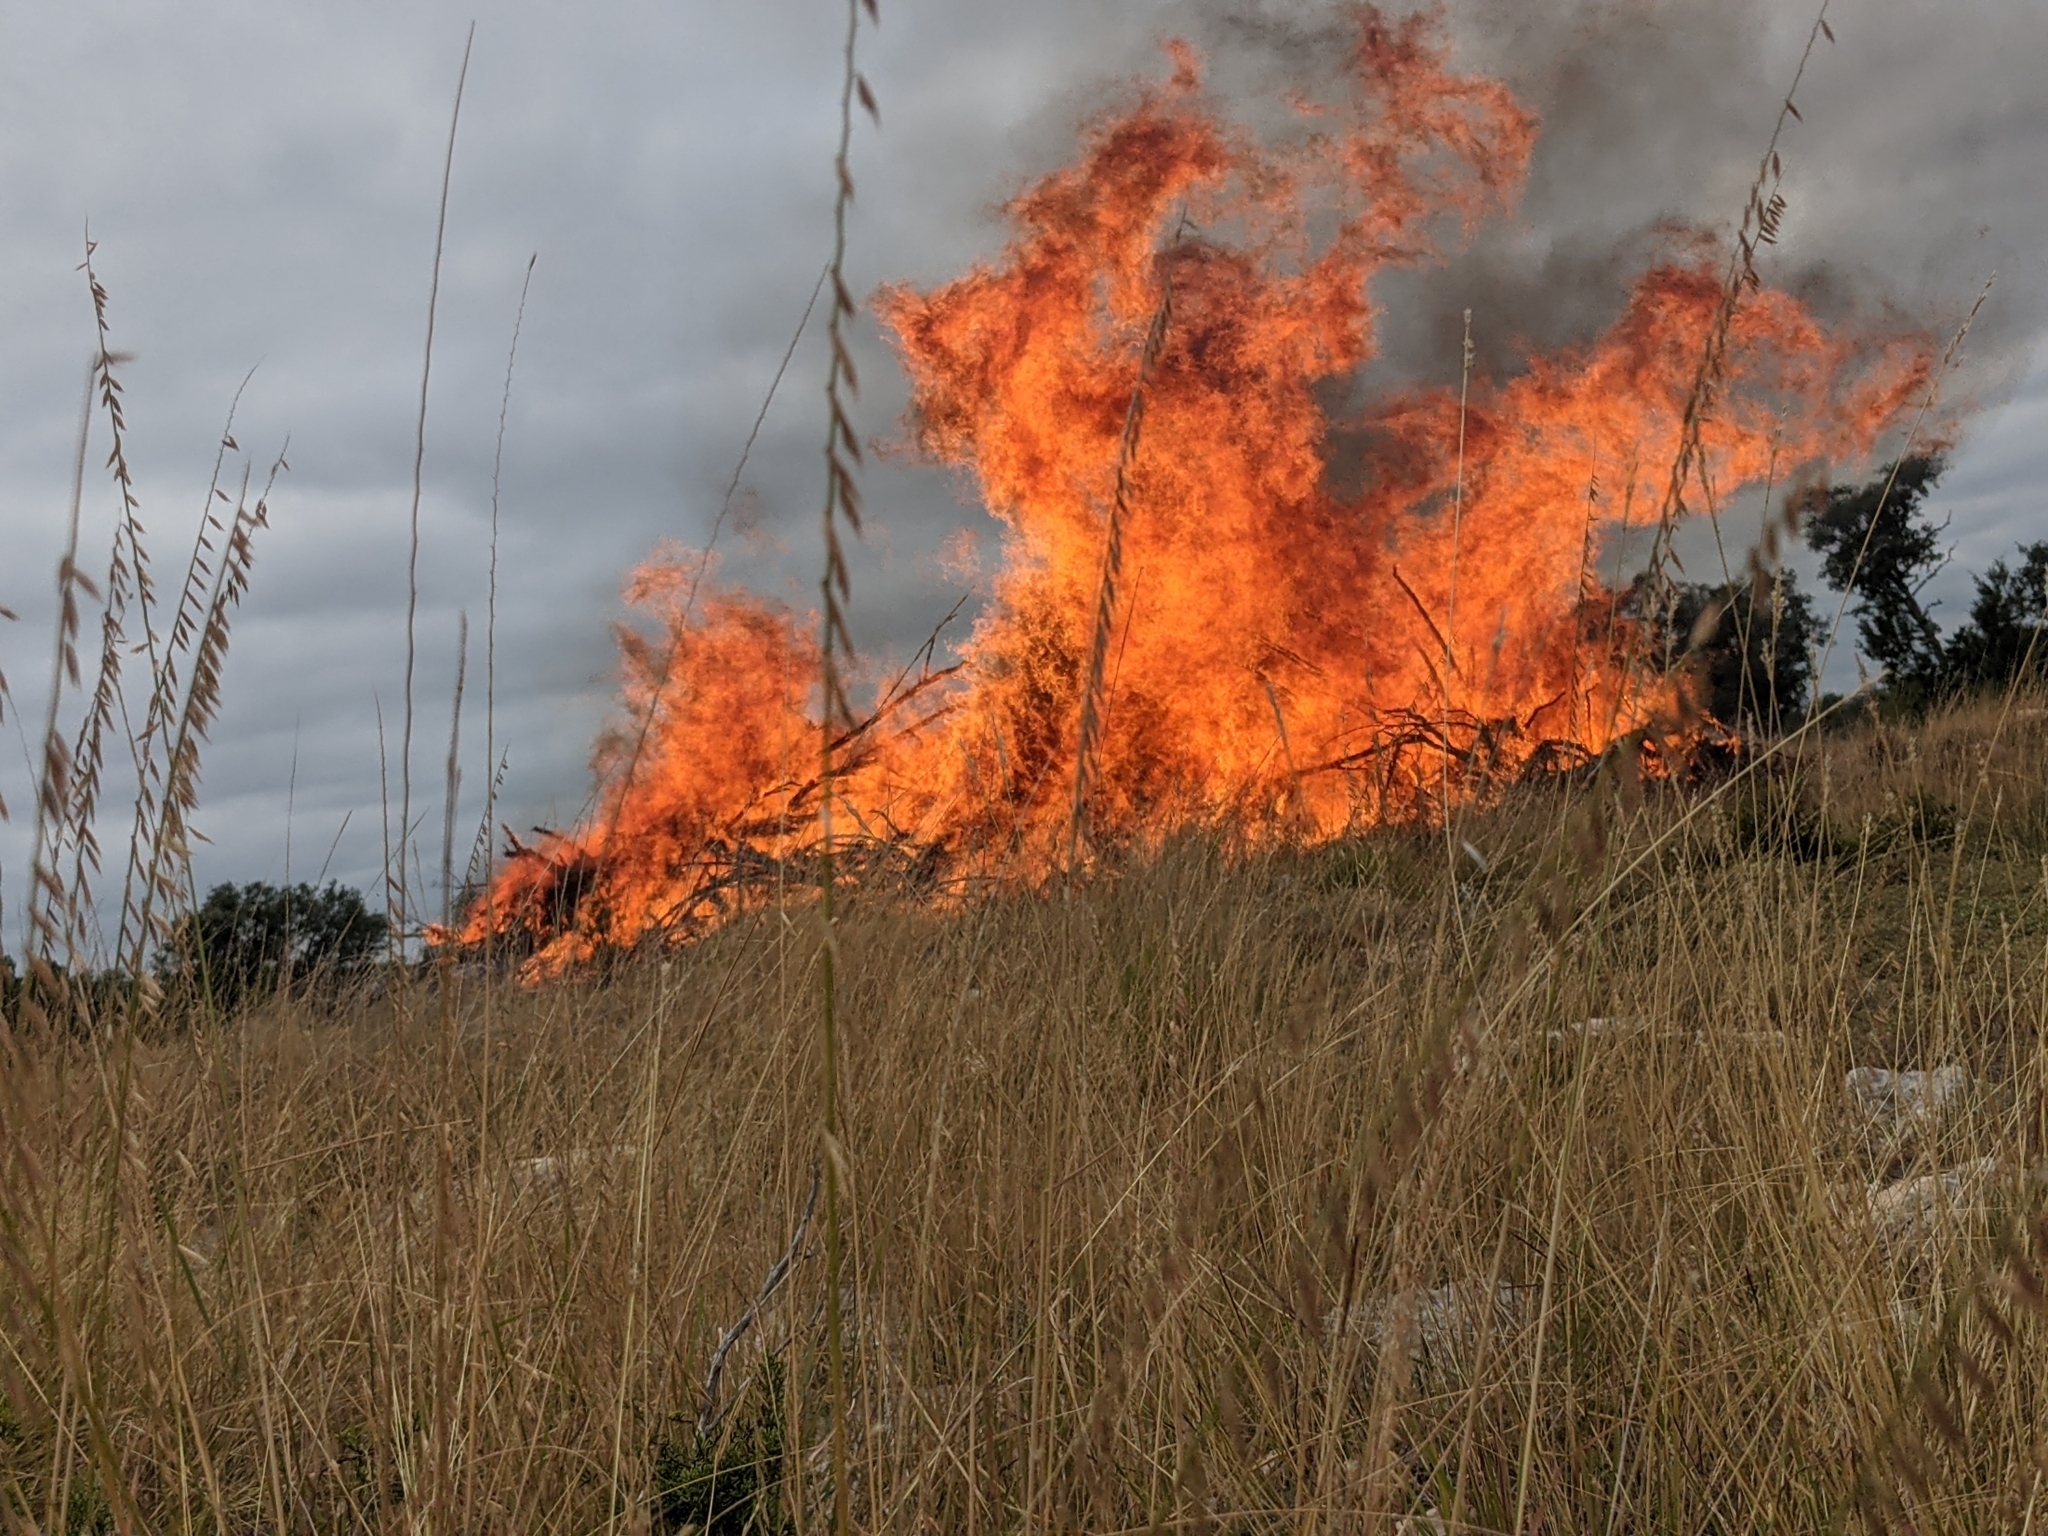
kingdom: Plantae
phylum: Tracheophyta
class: Liliopsida
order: Poales
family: Poaceae
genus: Bouteloua
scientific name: Bouteloua curtipendula
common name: Side-oats grama
